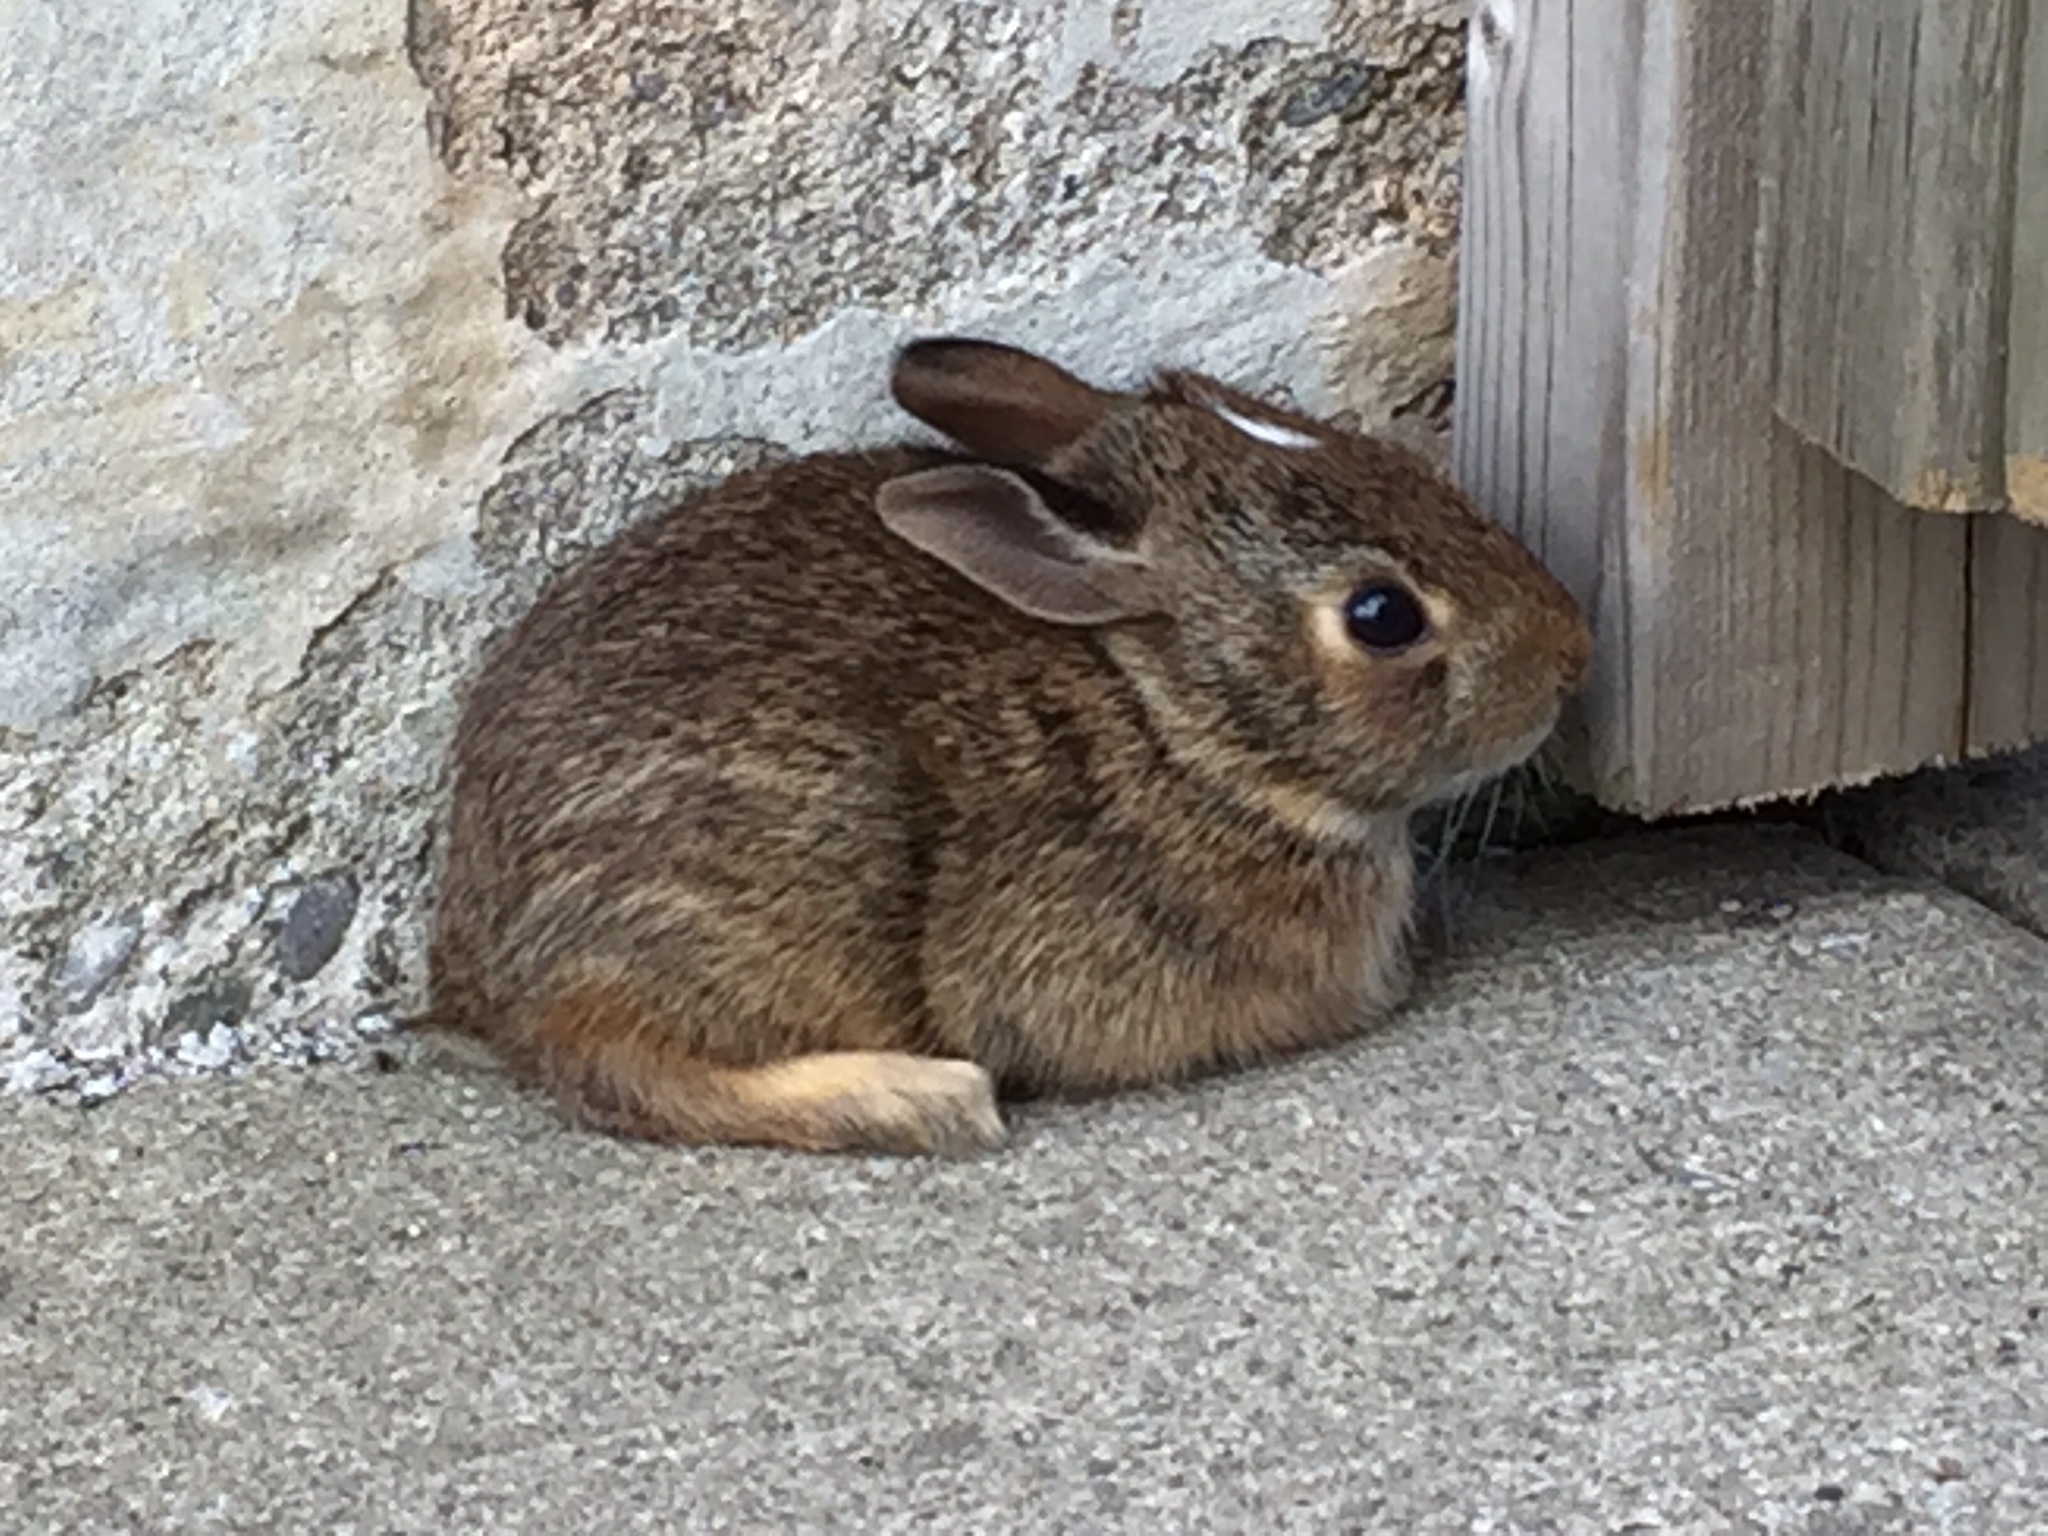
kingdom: Animalia
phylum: Chordata
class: Mammalia
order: Lagomorpha
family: Leporidae
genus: Sylvilagus
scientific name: Sylvilagus floridanus
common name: Eastern cottontail
